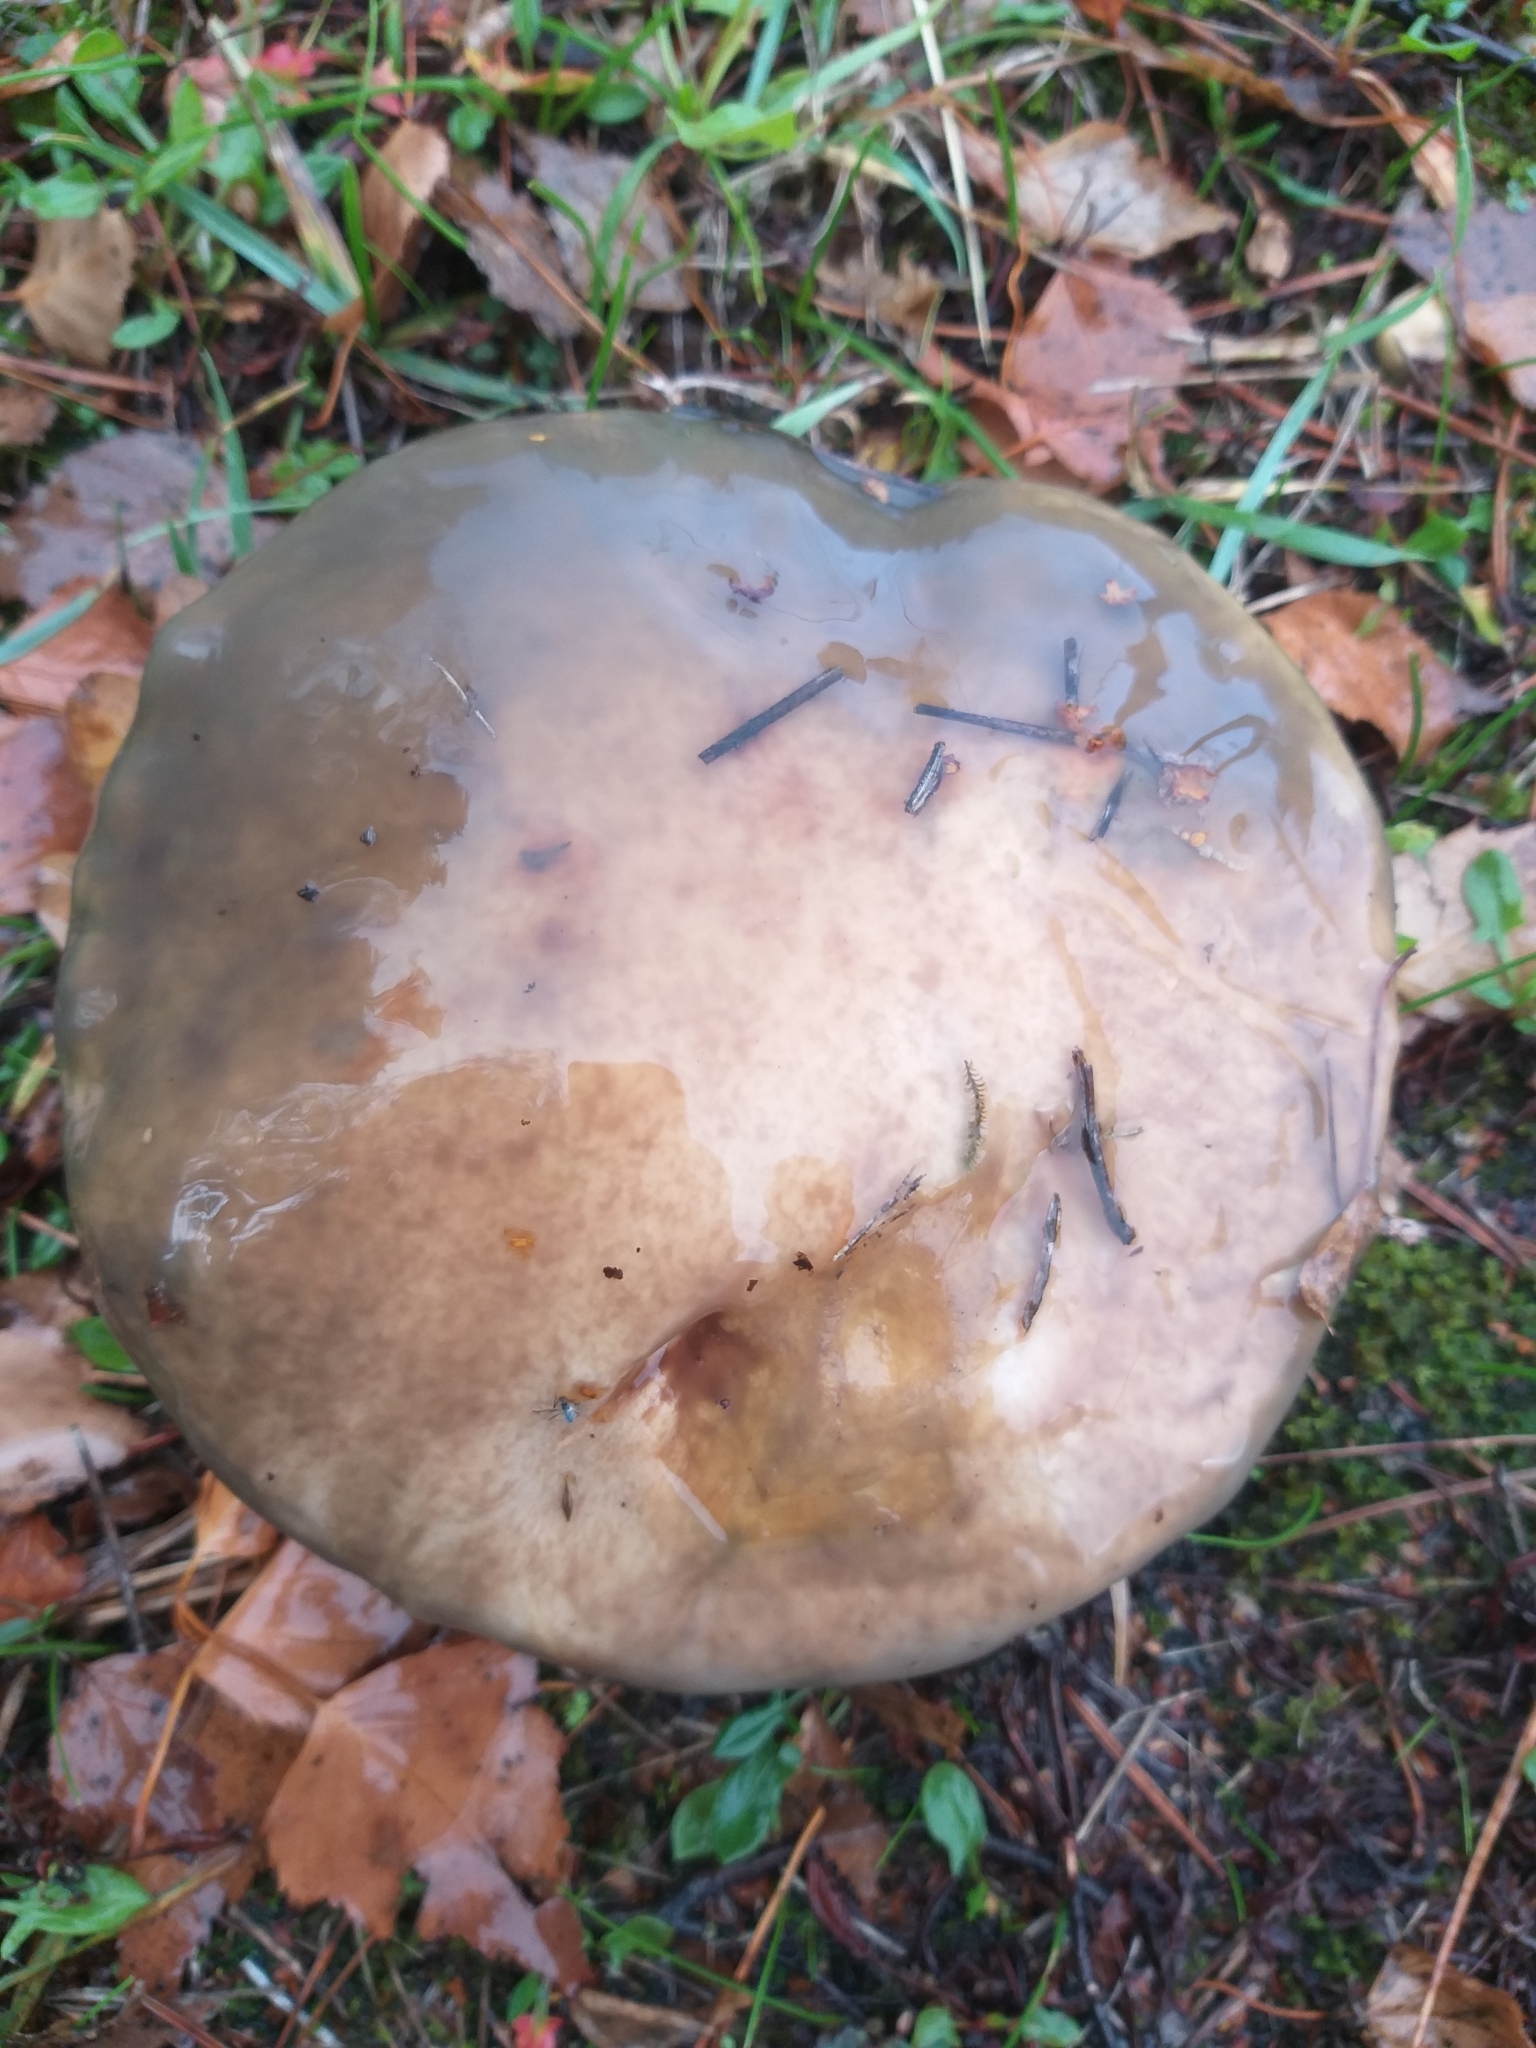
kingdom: Fungi
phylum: Basidiomycota
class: Agaricomycetes
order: Boletales
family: Suillaceae
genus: Suillus
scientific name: Suillus pungens
